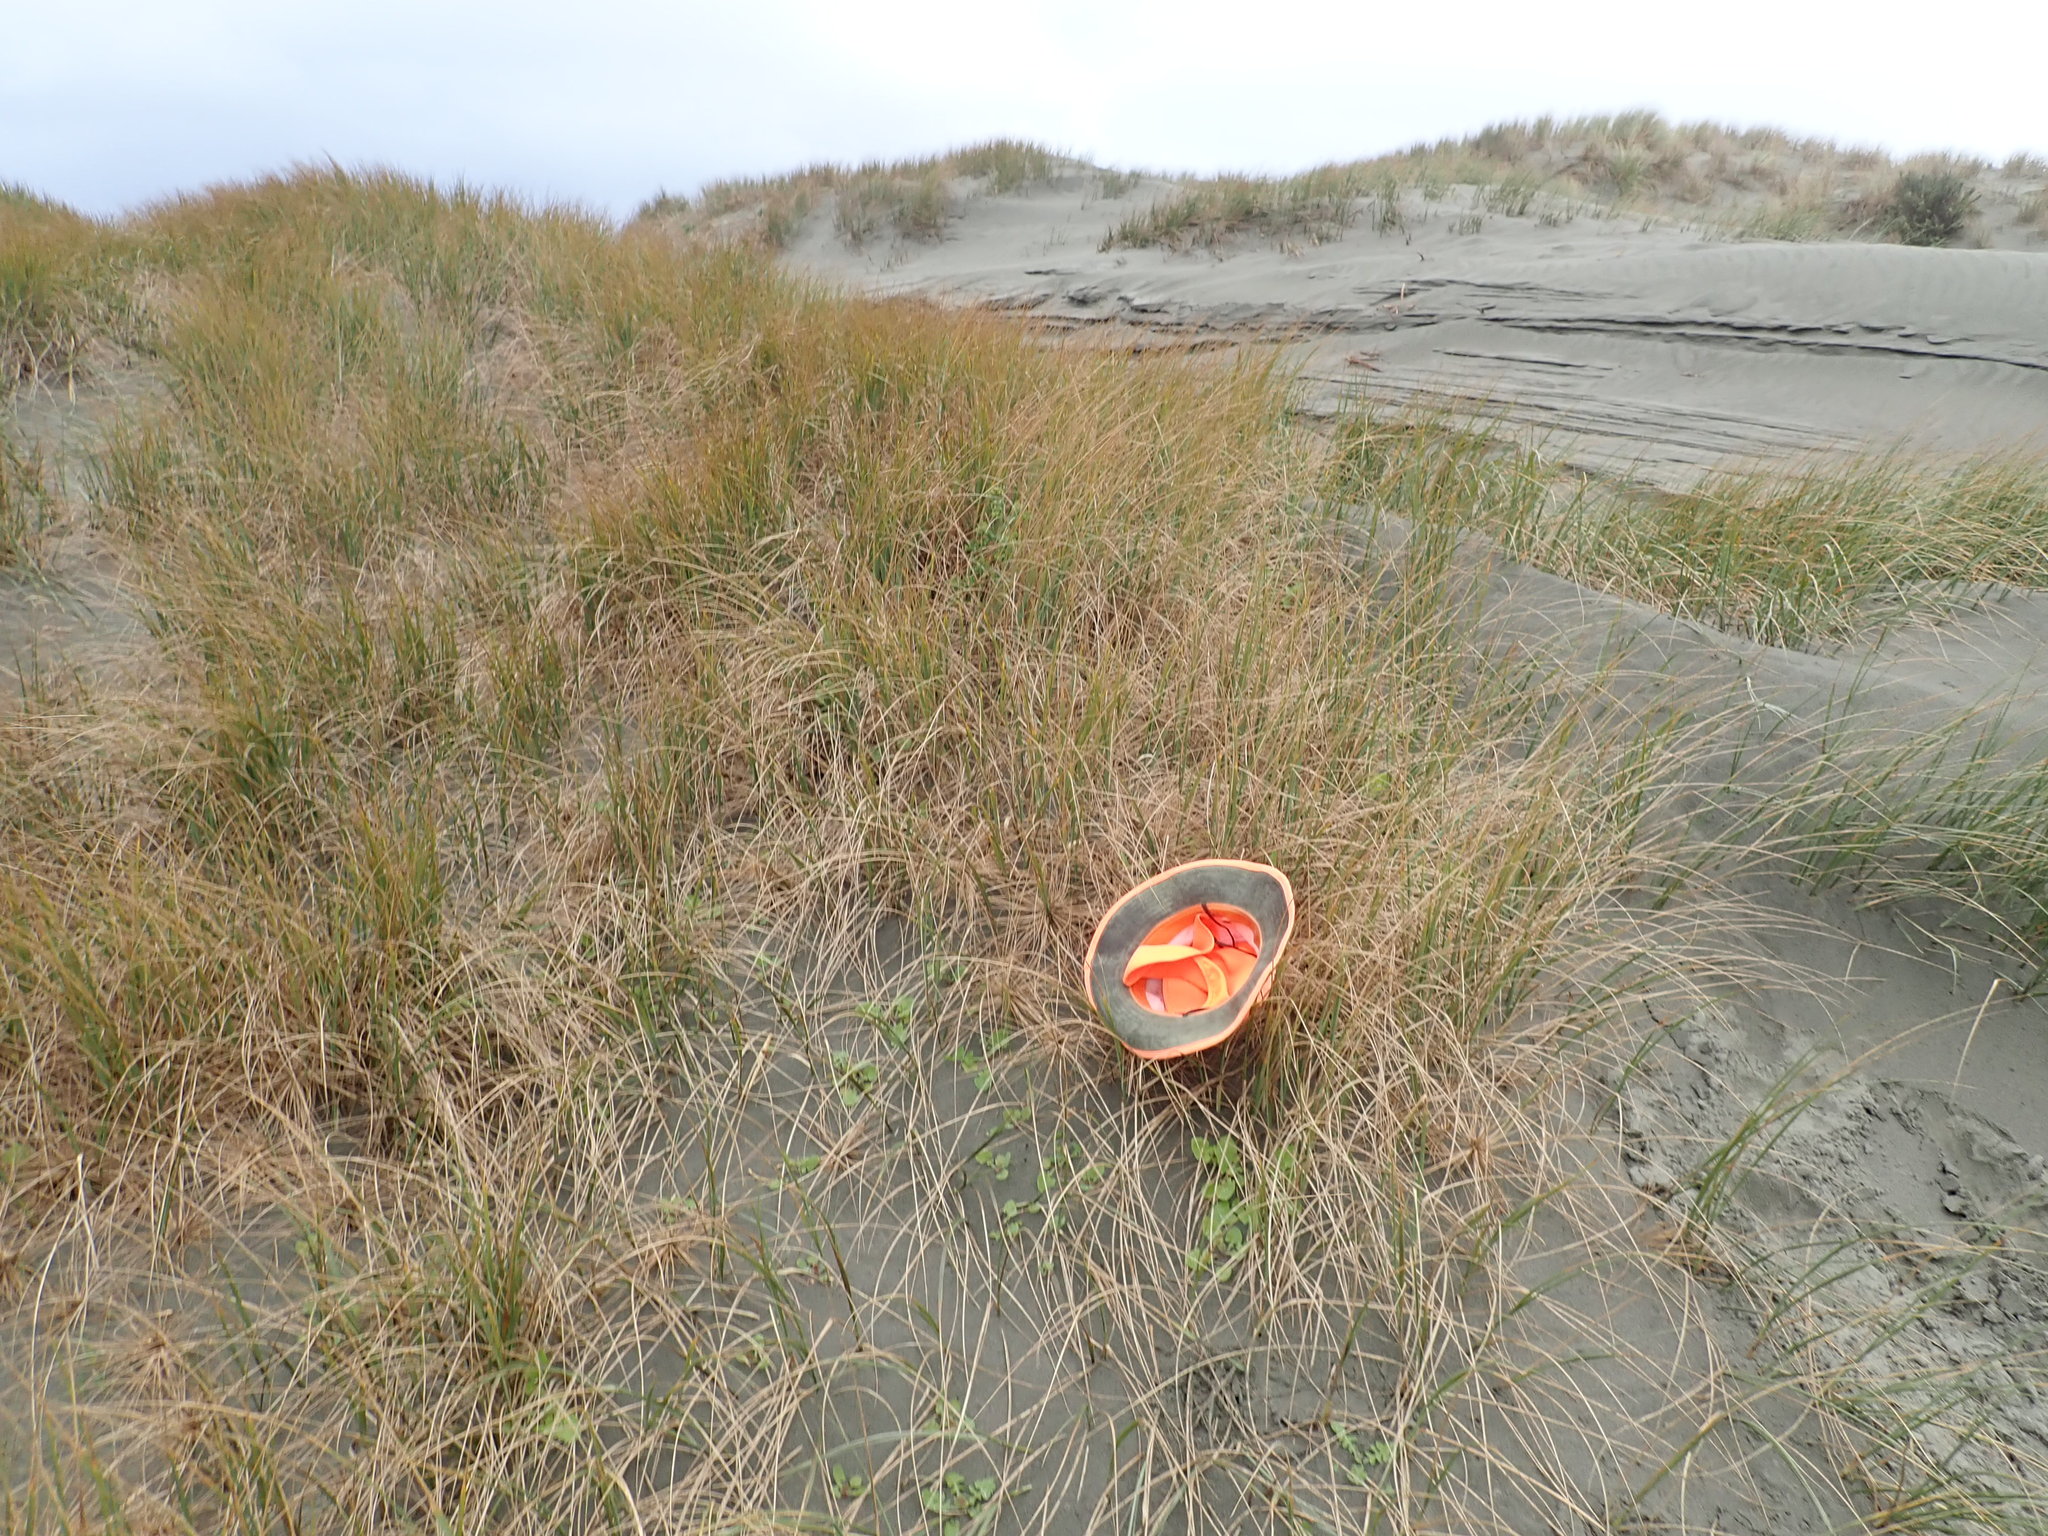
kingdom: Plantae
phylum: Tracheophyta
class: Magnoliopsida
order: Asterales
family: Asteraceae
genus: Sonchus
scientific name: Sonchus oleraceus
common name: Common sowthistle
